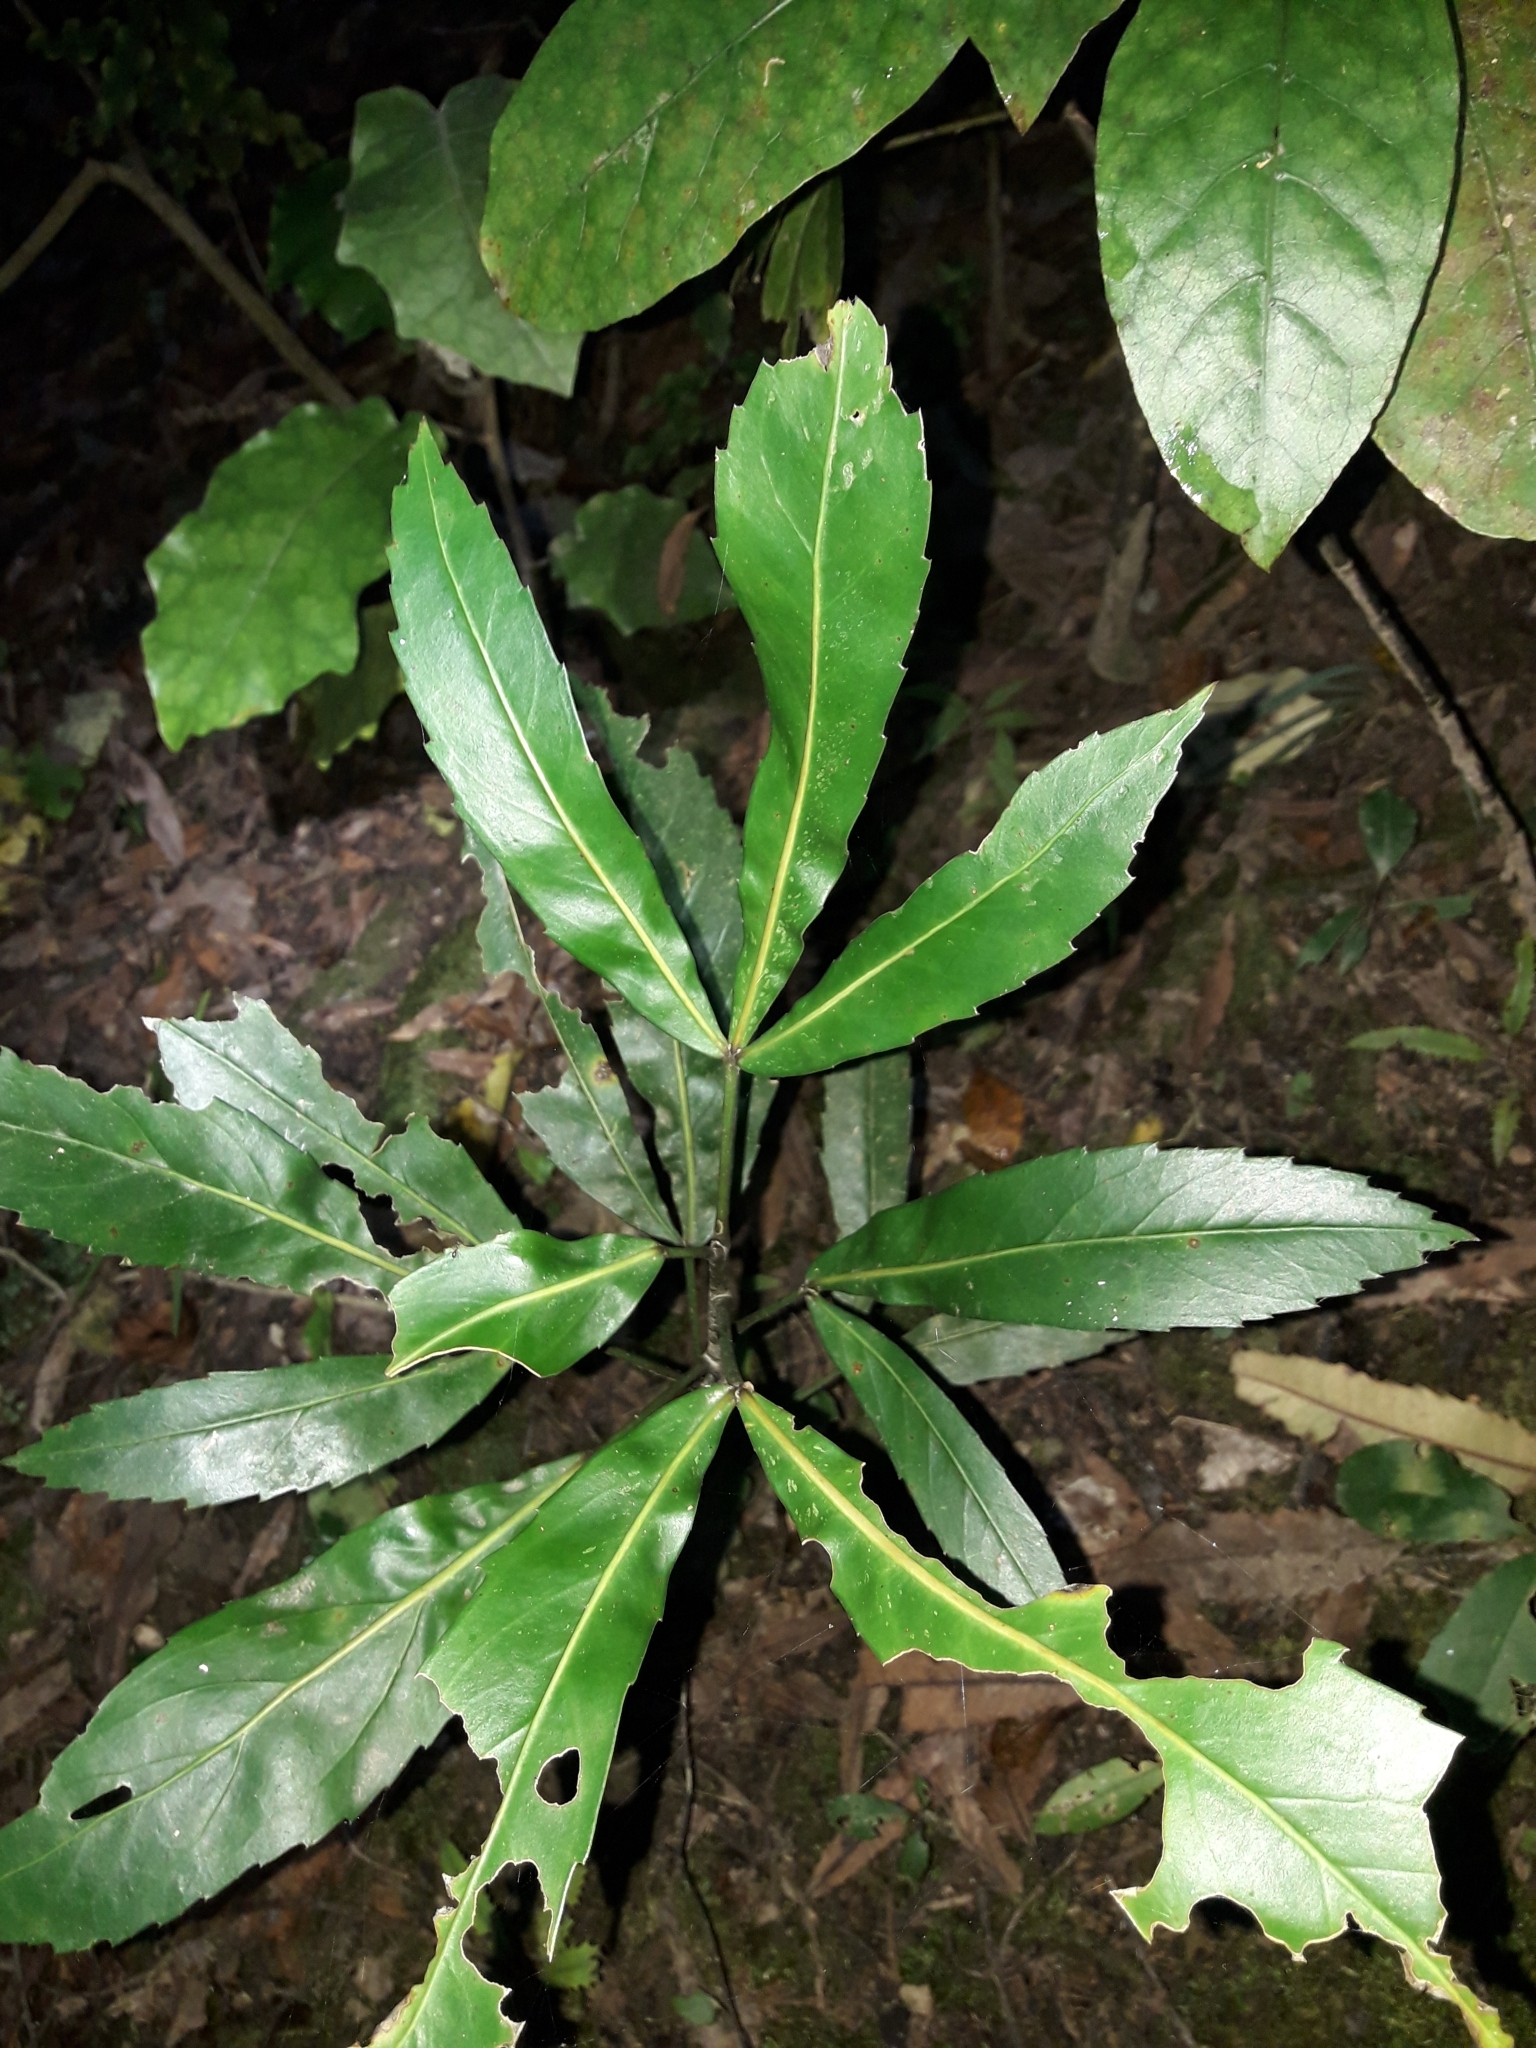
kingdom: Plantae
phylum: Tracheophyta
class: Magnoliopsida
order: Apiales
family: Araliaceae
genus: Pseudopanax
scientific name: Pseudopanax
